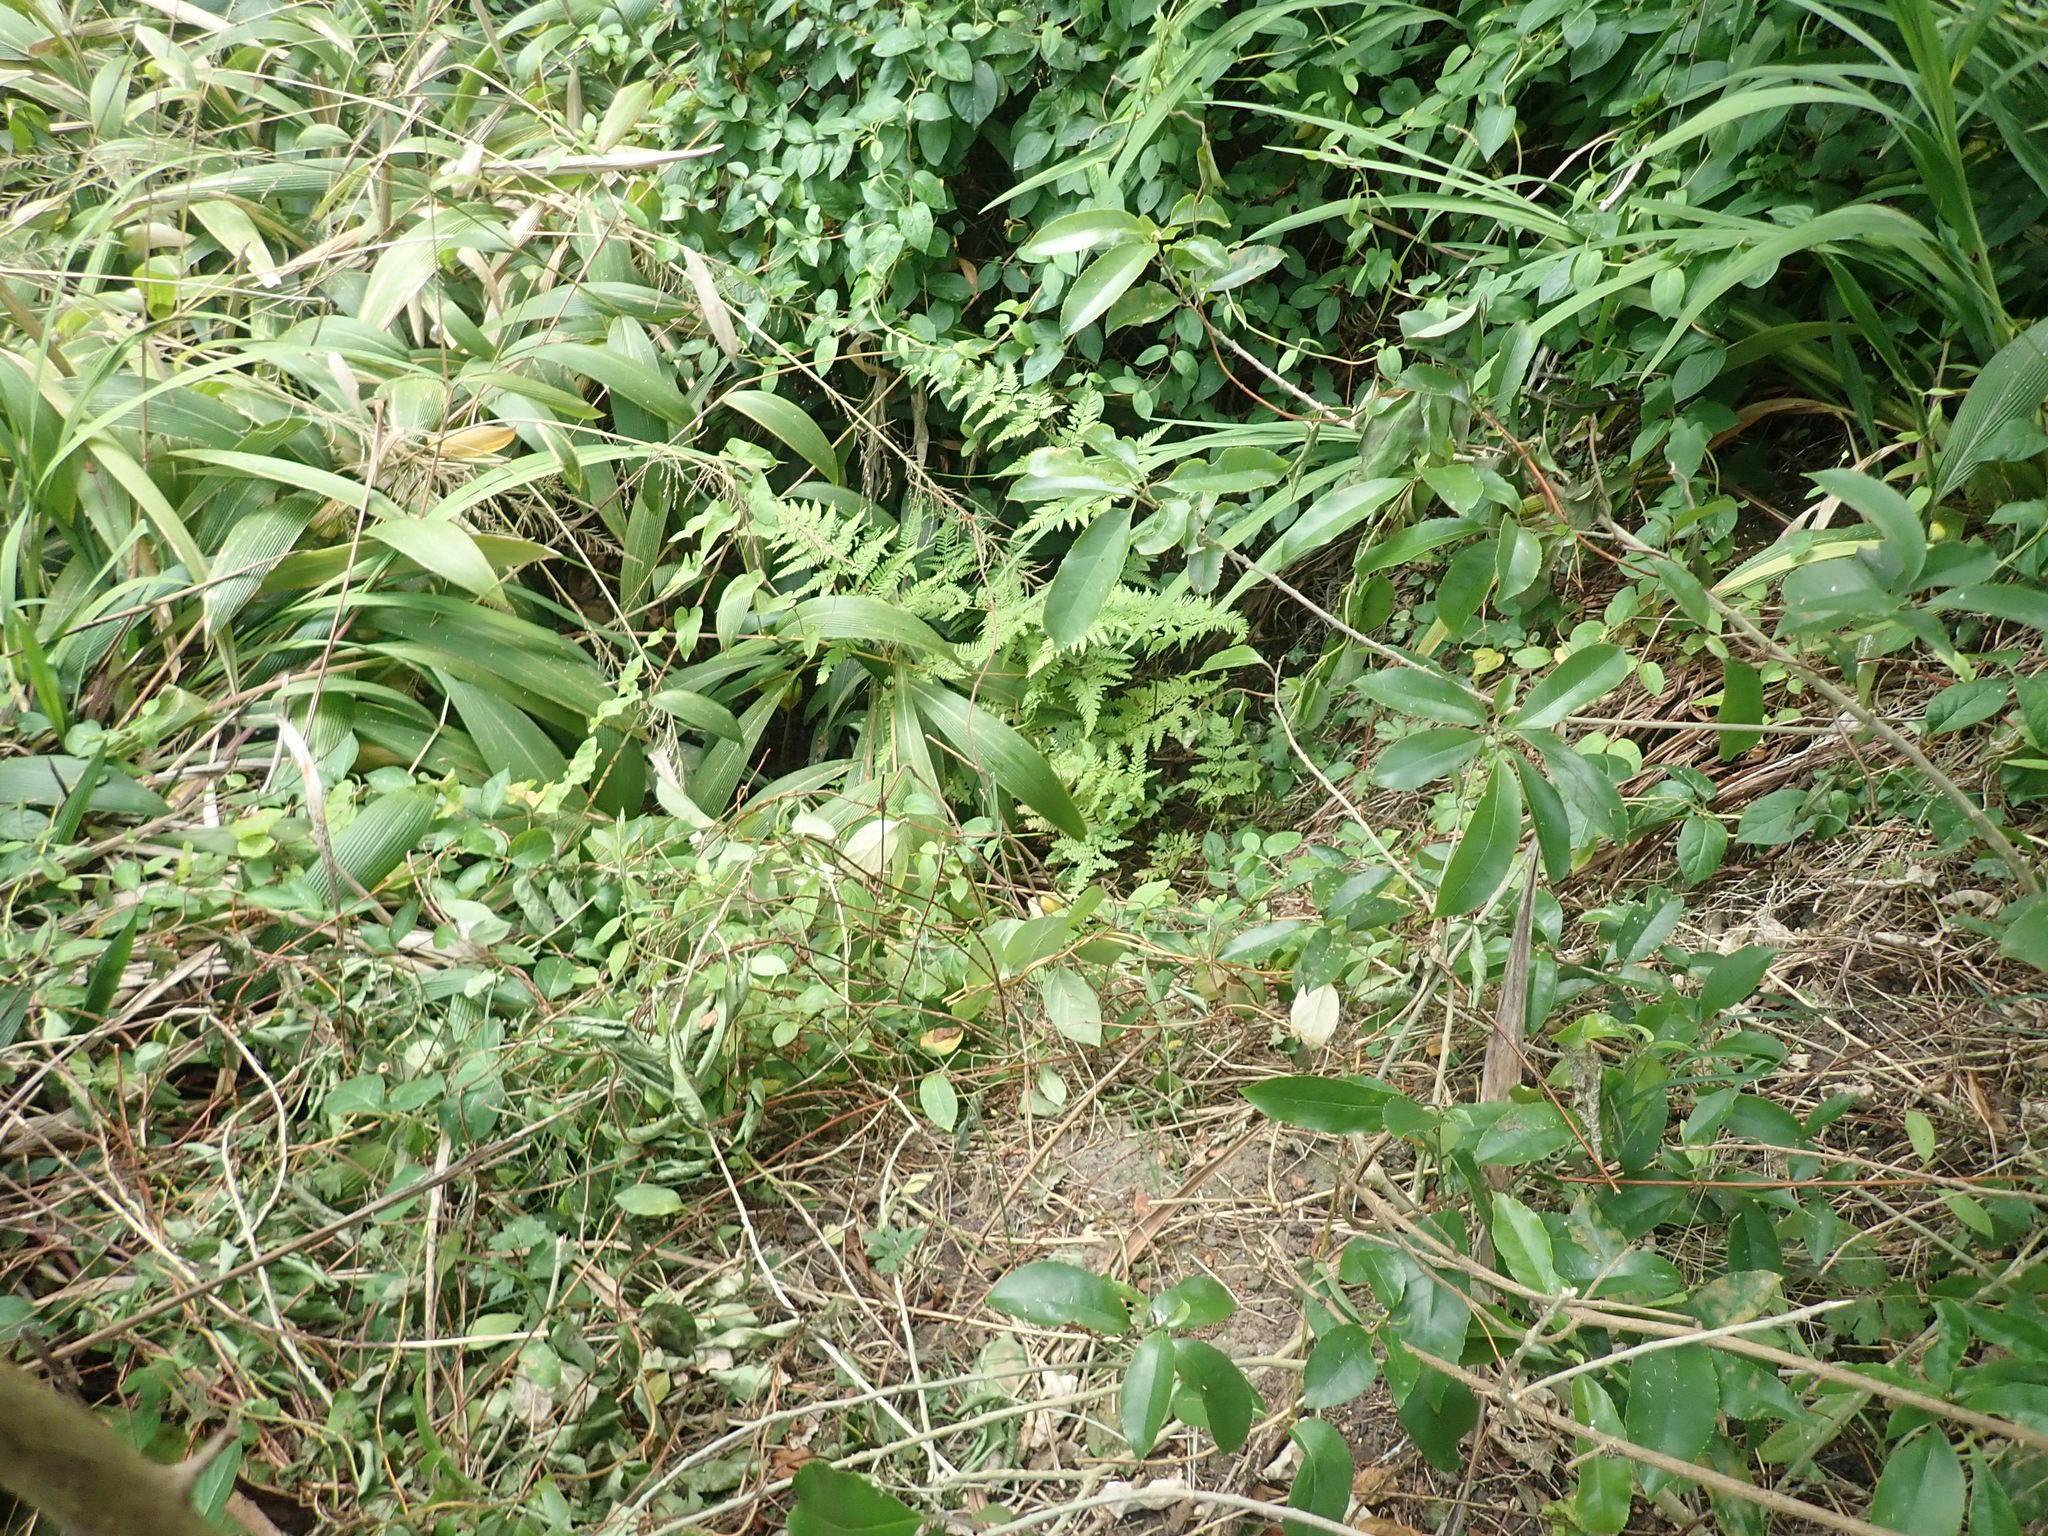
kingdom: Plantae
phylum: Tracheophyta
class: Polypodiopsida
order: Polypodiales
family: Pteridaceae
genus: Pteris
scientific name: Pteris tremula
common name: Australian brake
